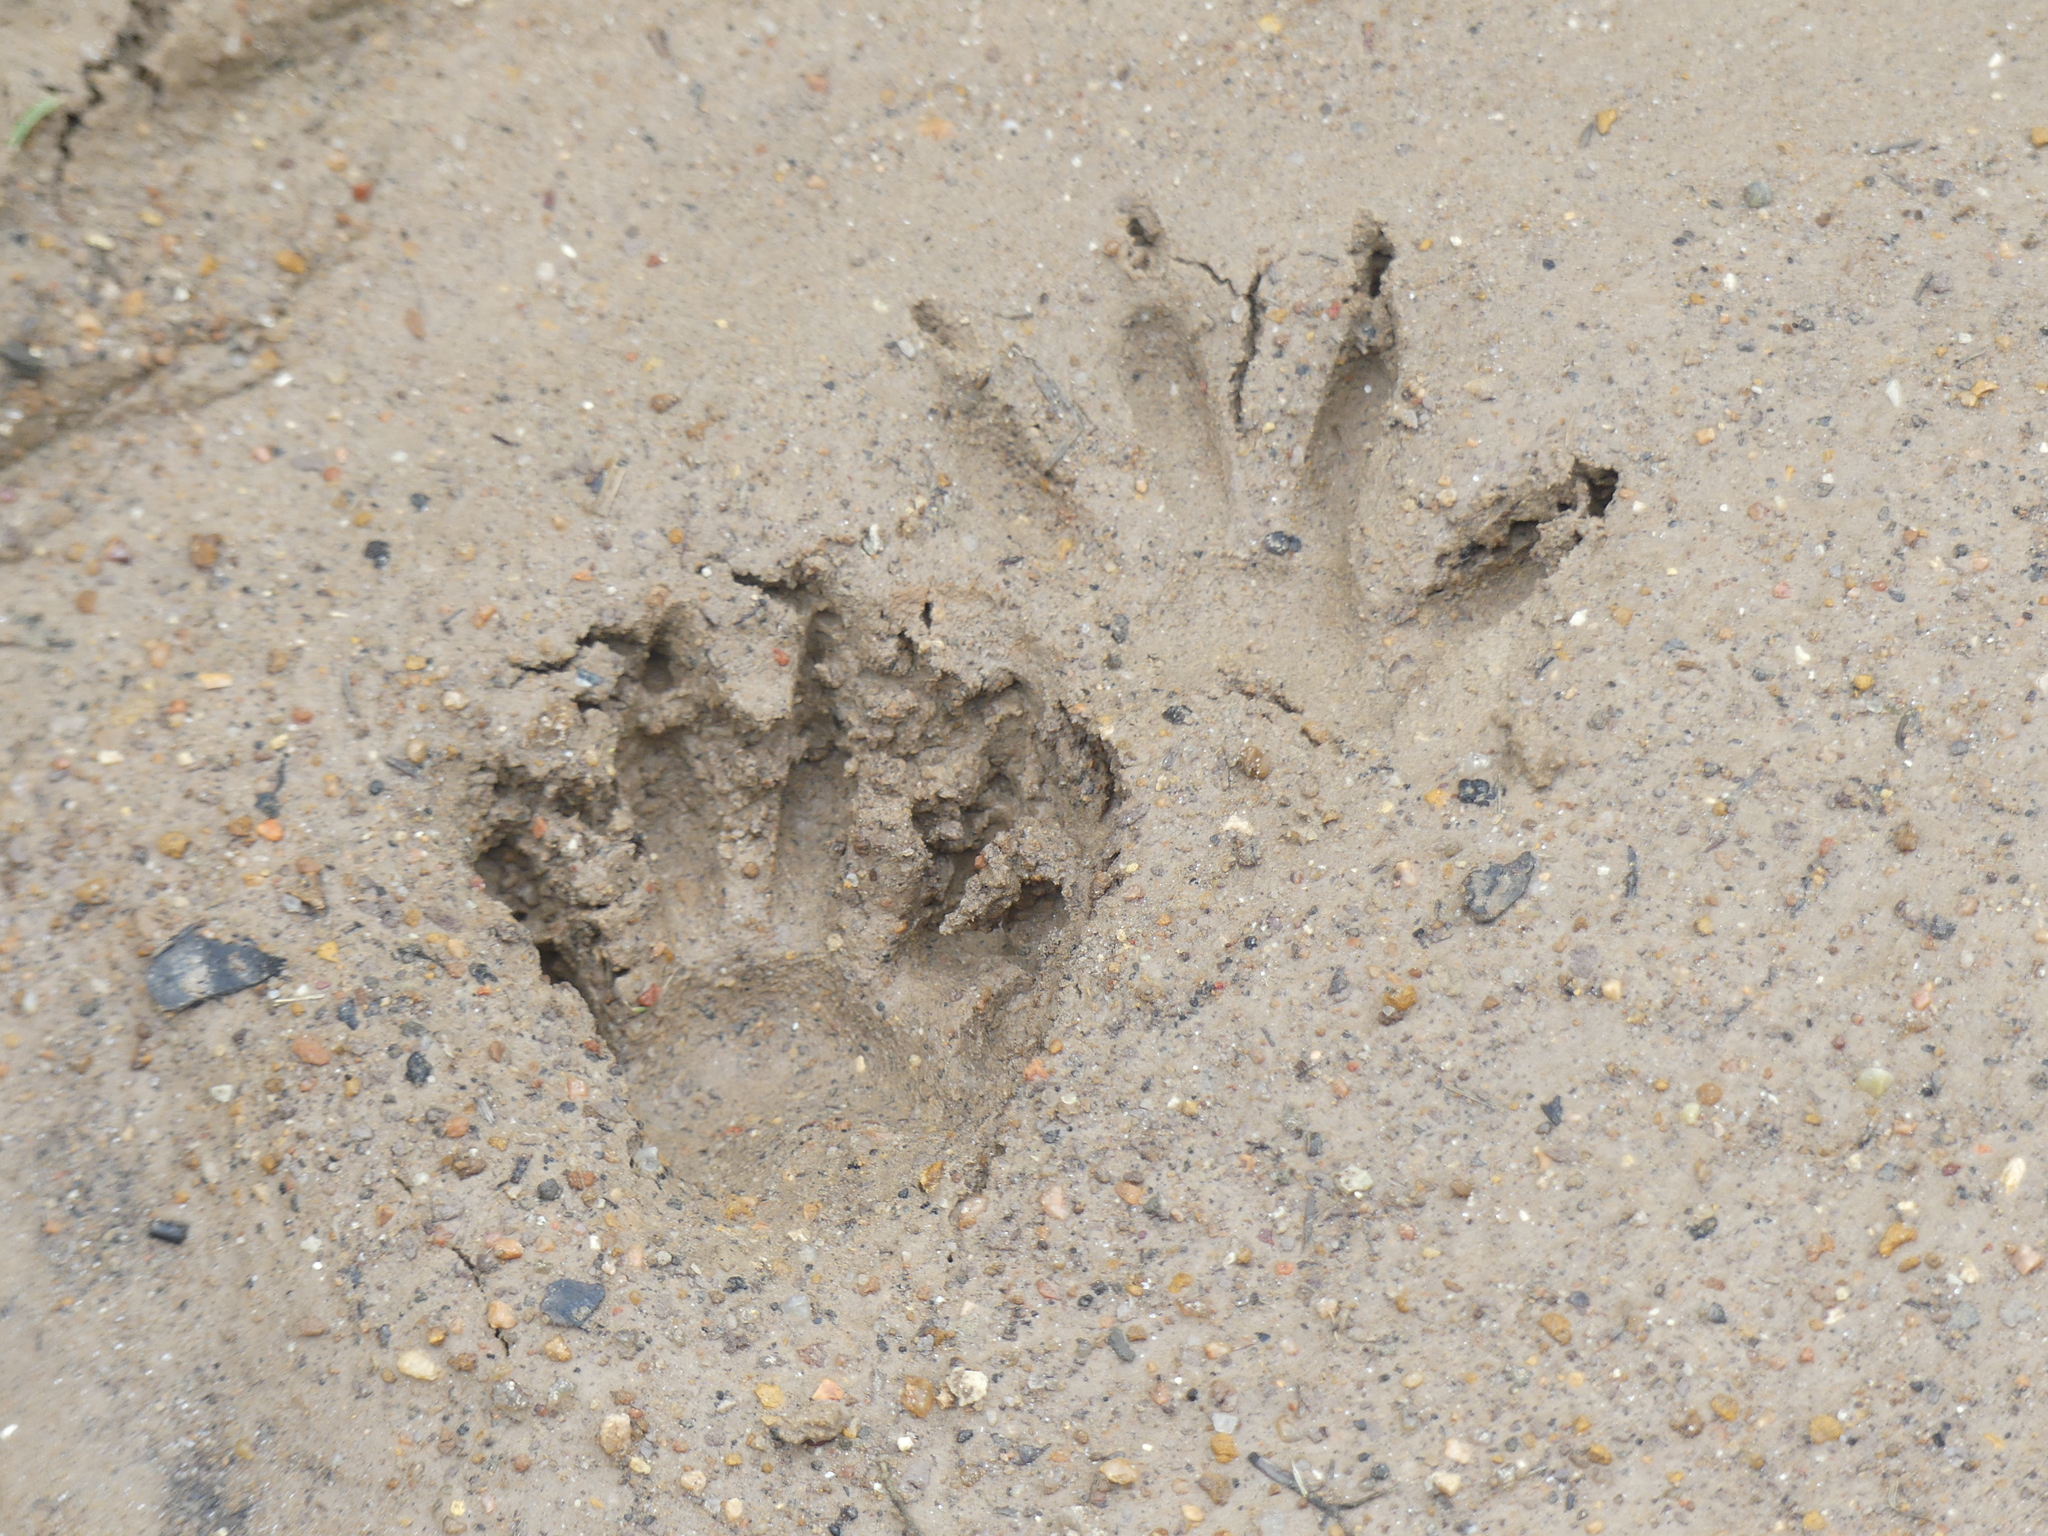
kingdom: Animalia
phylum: Chordata
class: Mammalia
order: Carnivora
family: Procyonidae
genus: Procyon
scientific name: Procyon lotor
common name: Raccoon
